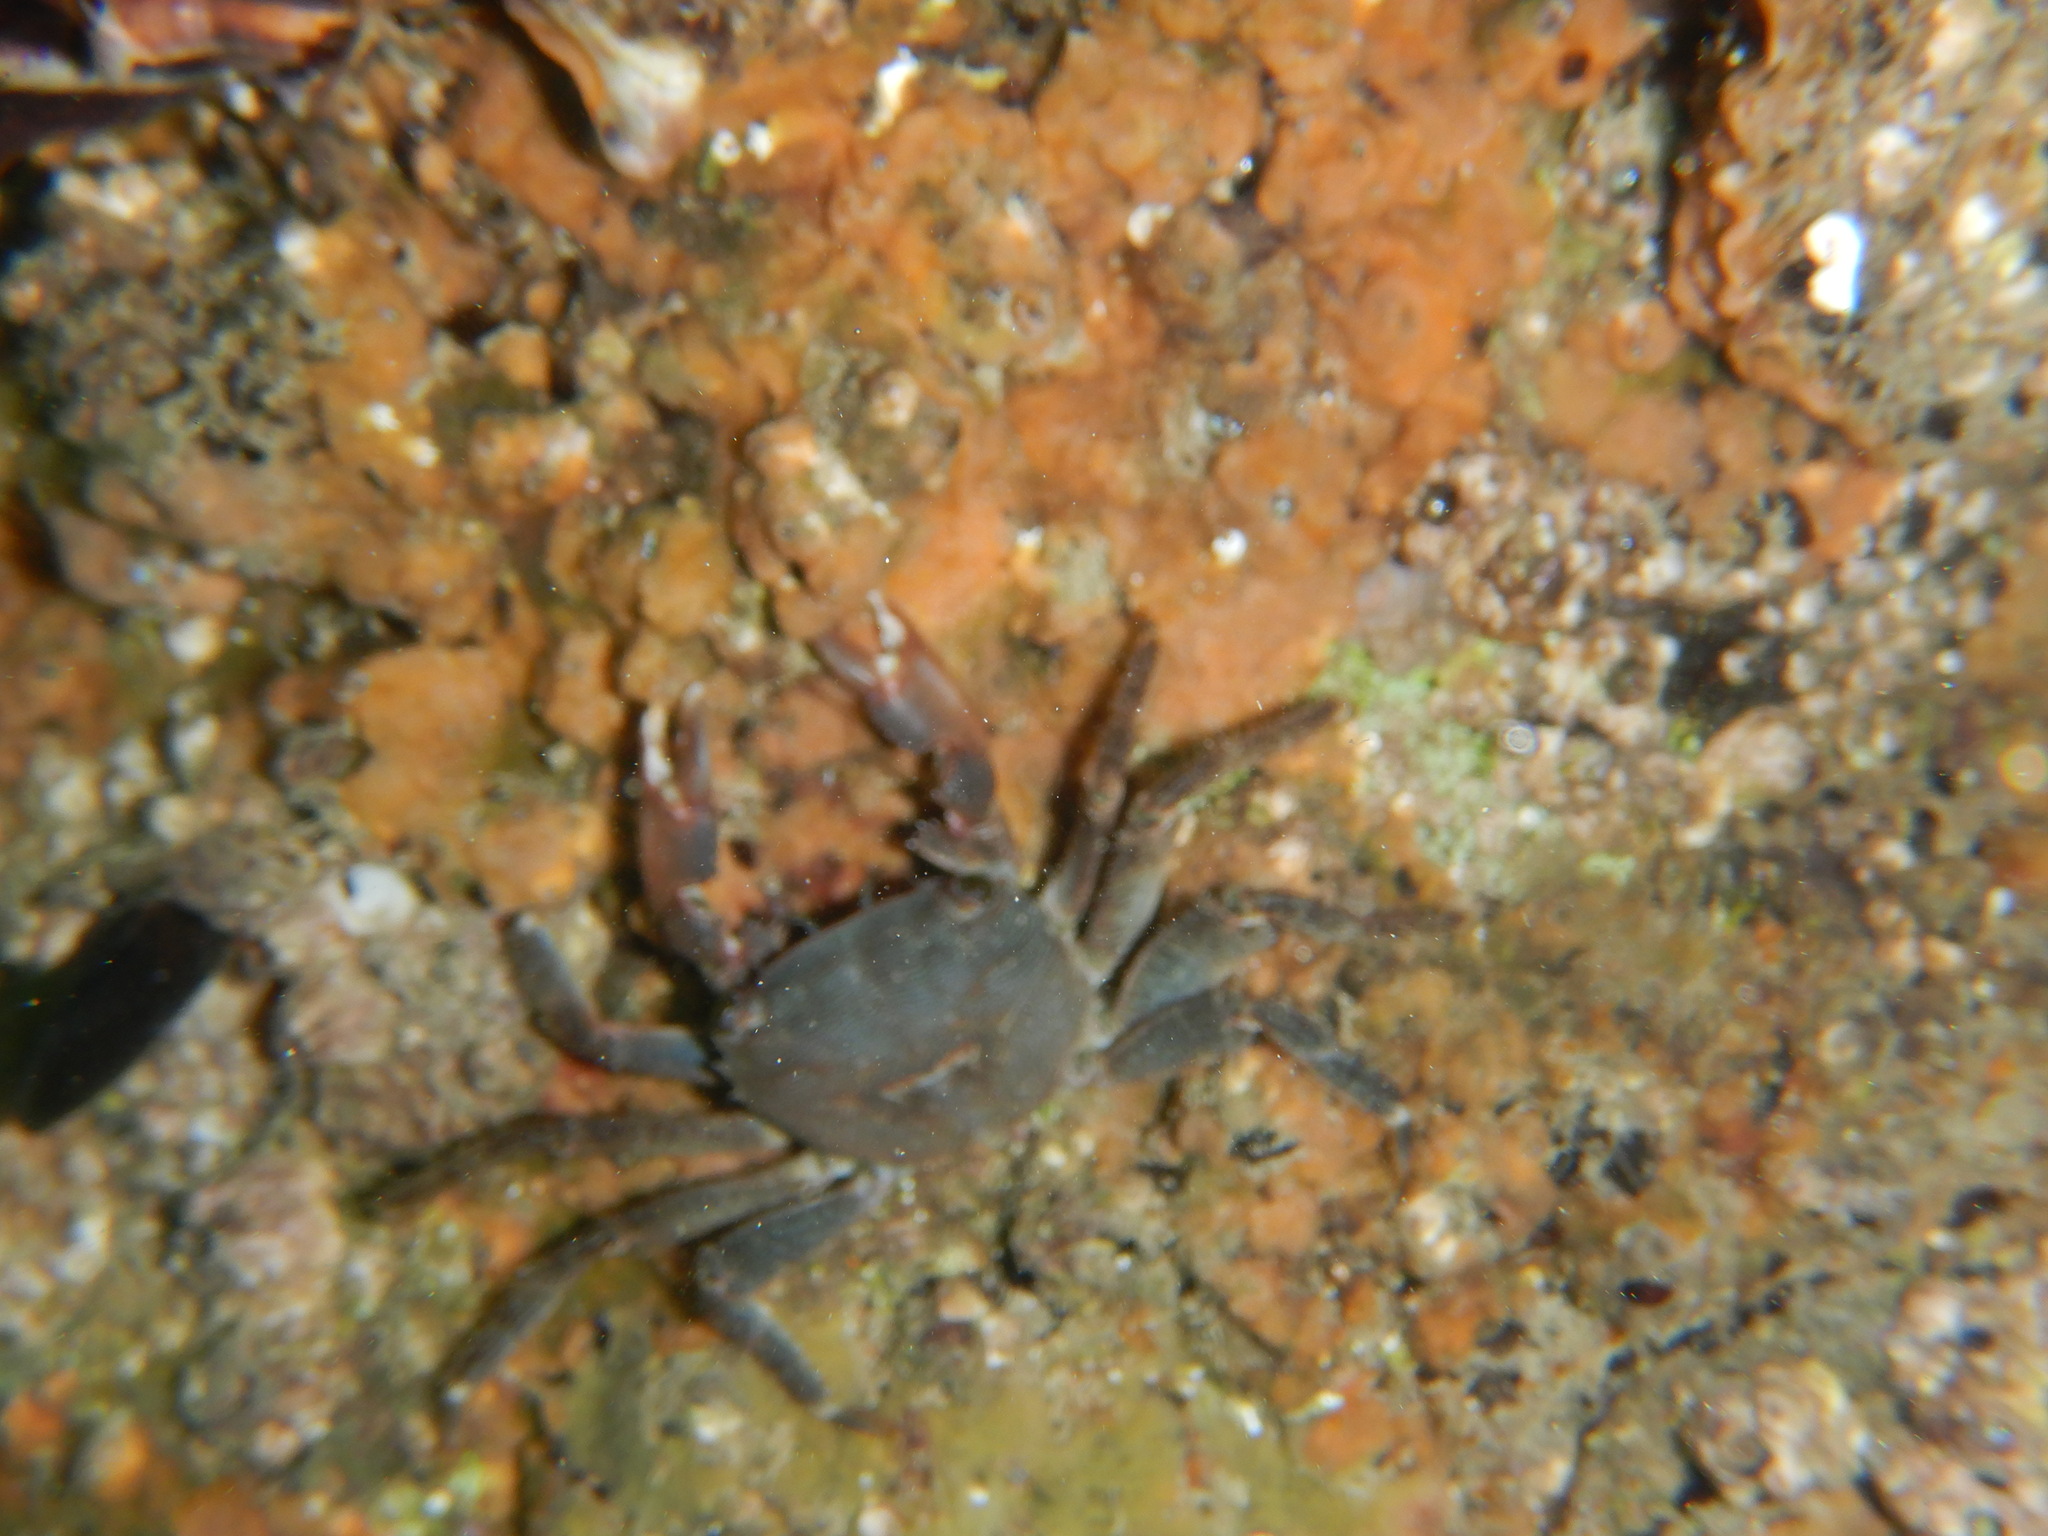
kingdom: Animalia
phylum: Arthropoda
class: Malacostraca
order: Decapoda
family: Grapsidae
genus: Pachygrapsus
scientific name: Pachygrapsus marmoratus
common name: Marbled rock crab
